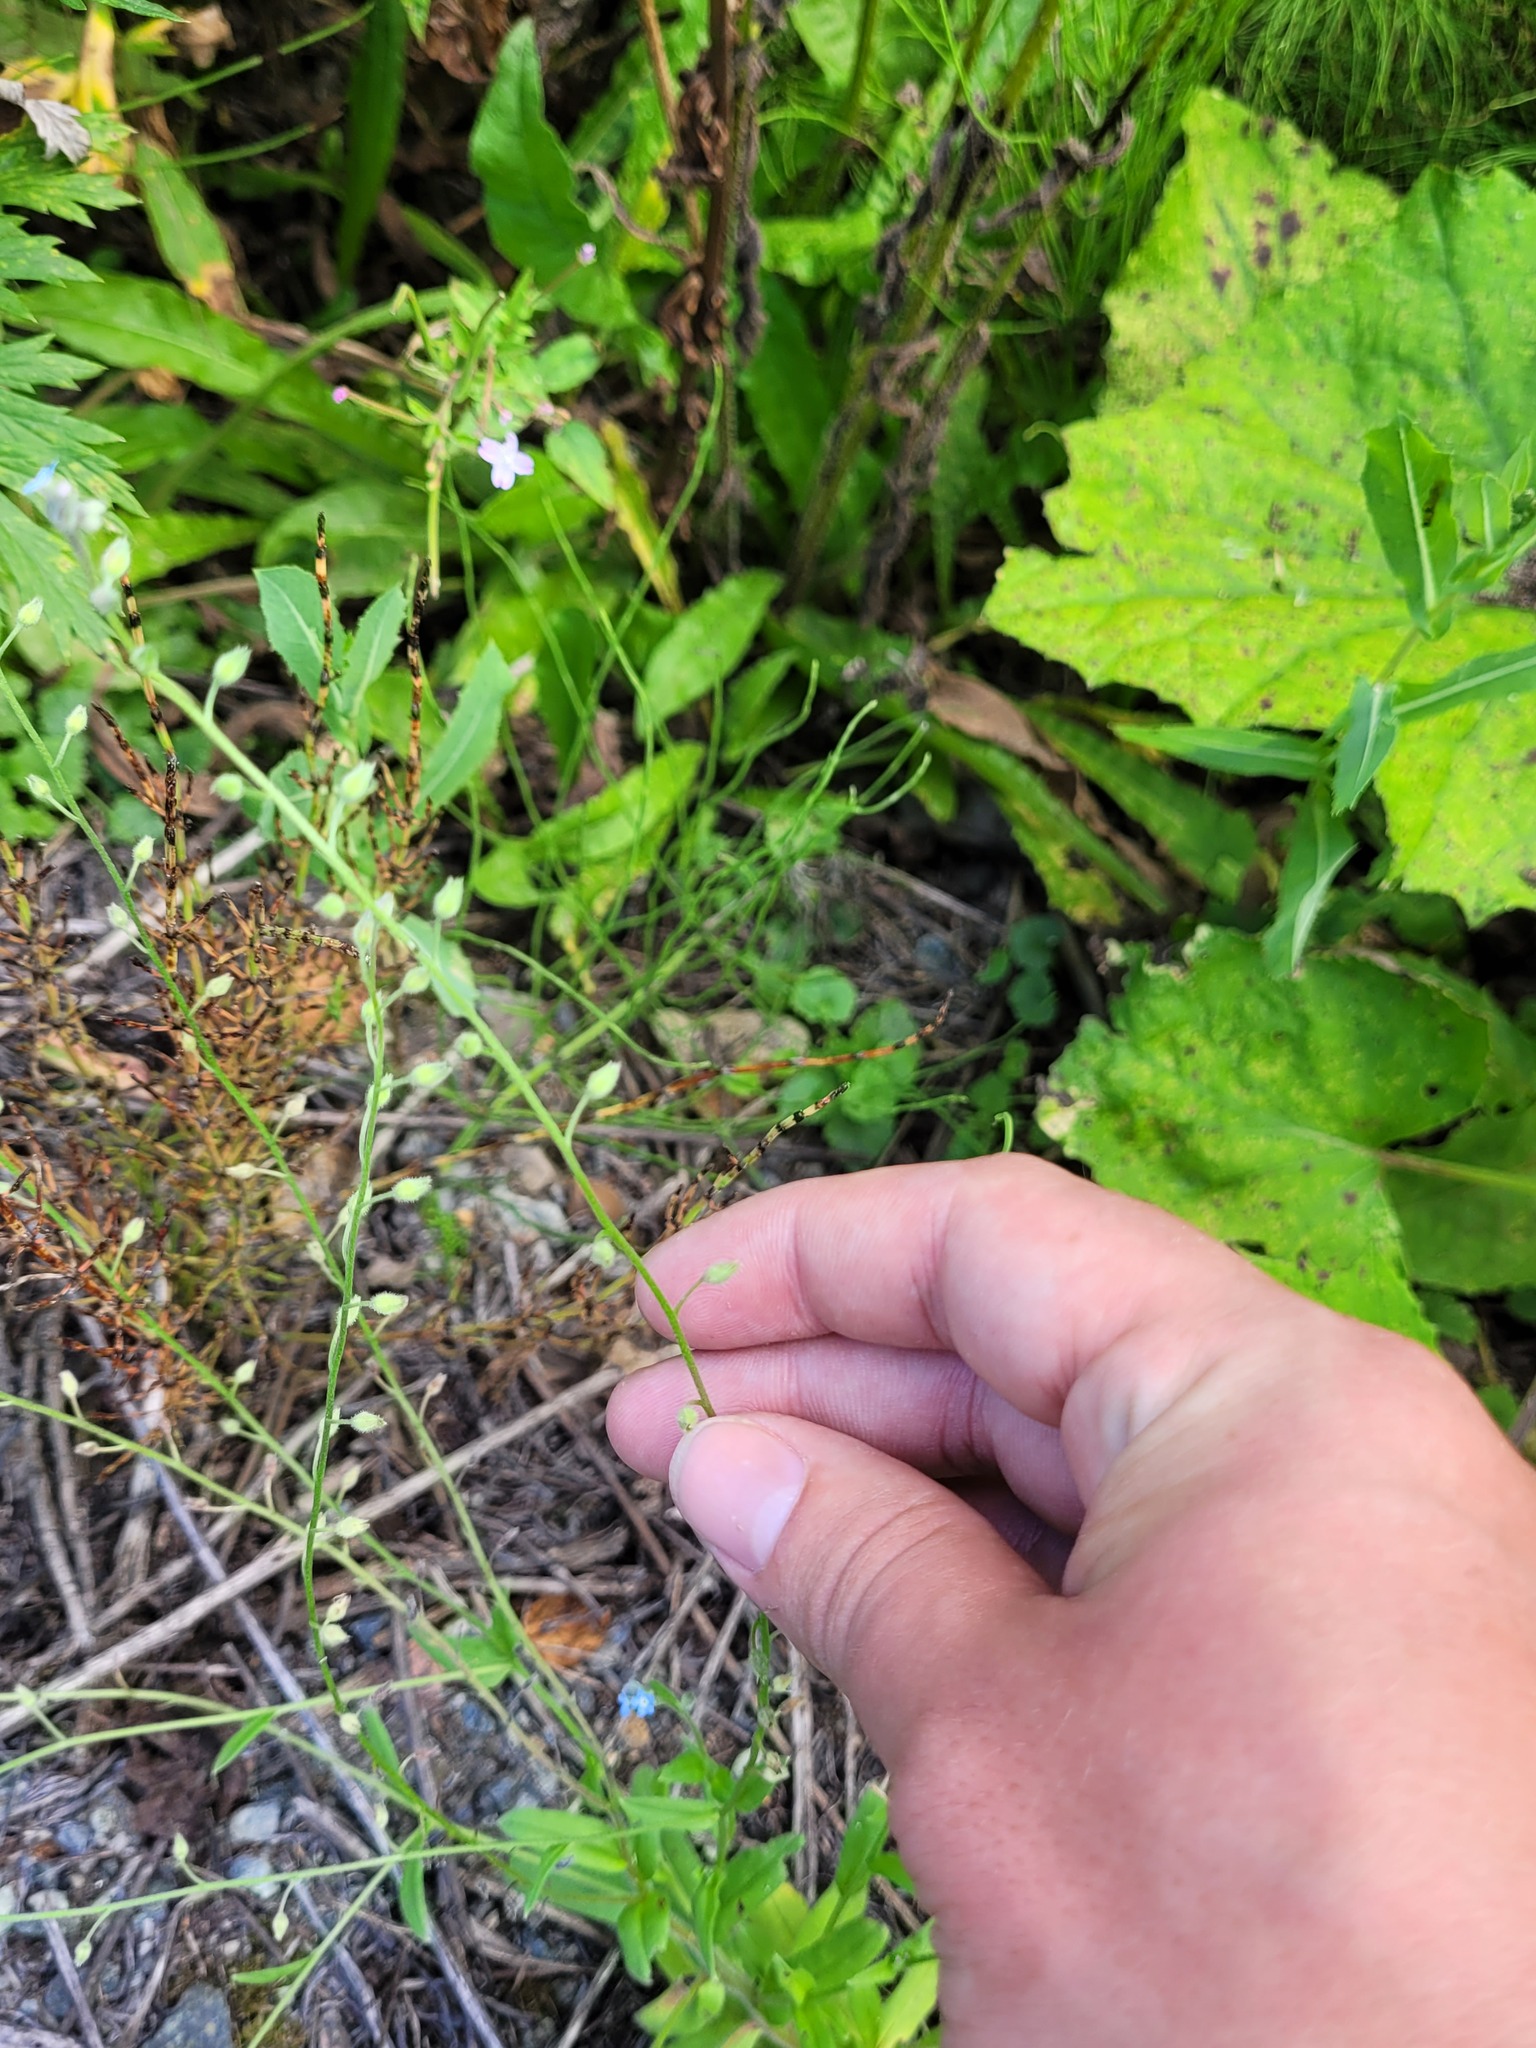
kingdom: Plantae
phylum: Tracheophyta
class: Magnoliopsida
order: Boraginales
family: Boraginaceae
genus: Myosotis
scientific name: Myosotis arvensis
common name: Field forget-me-not
